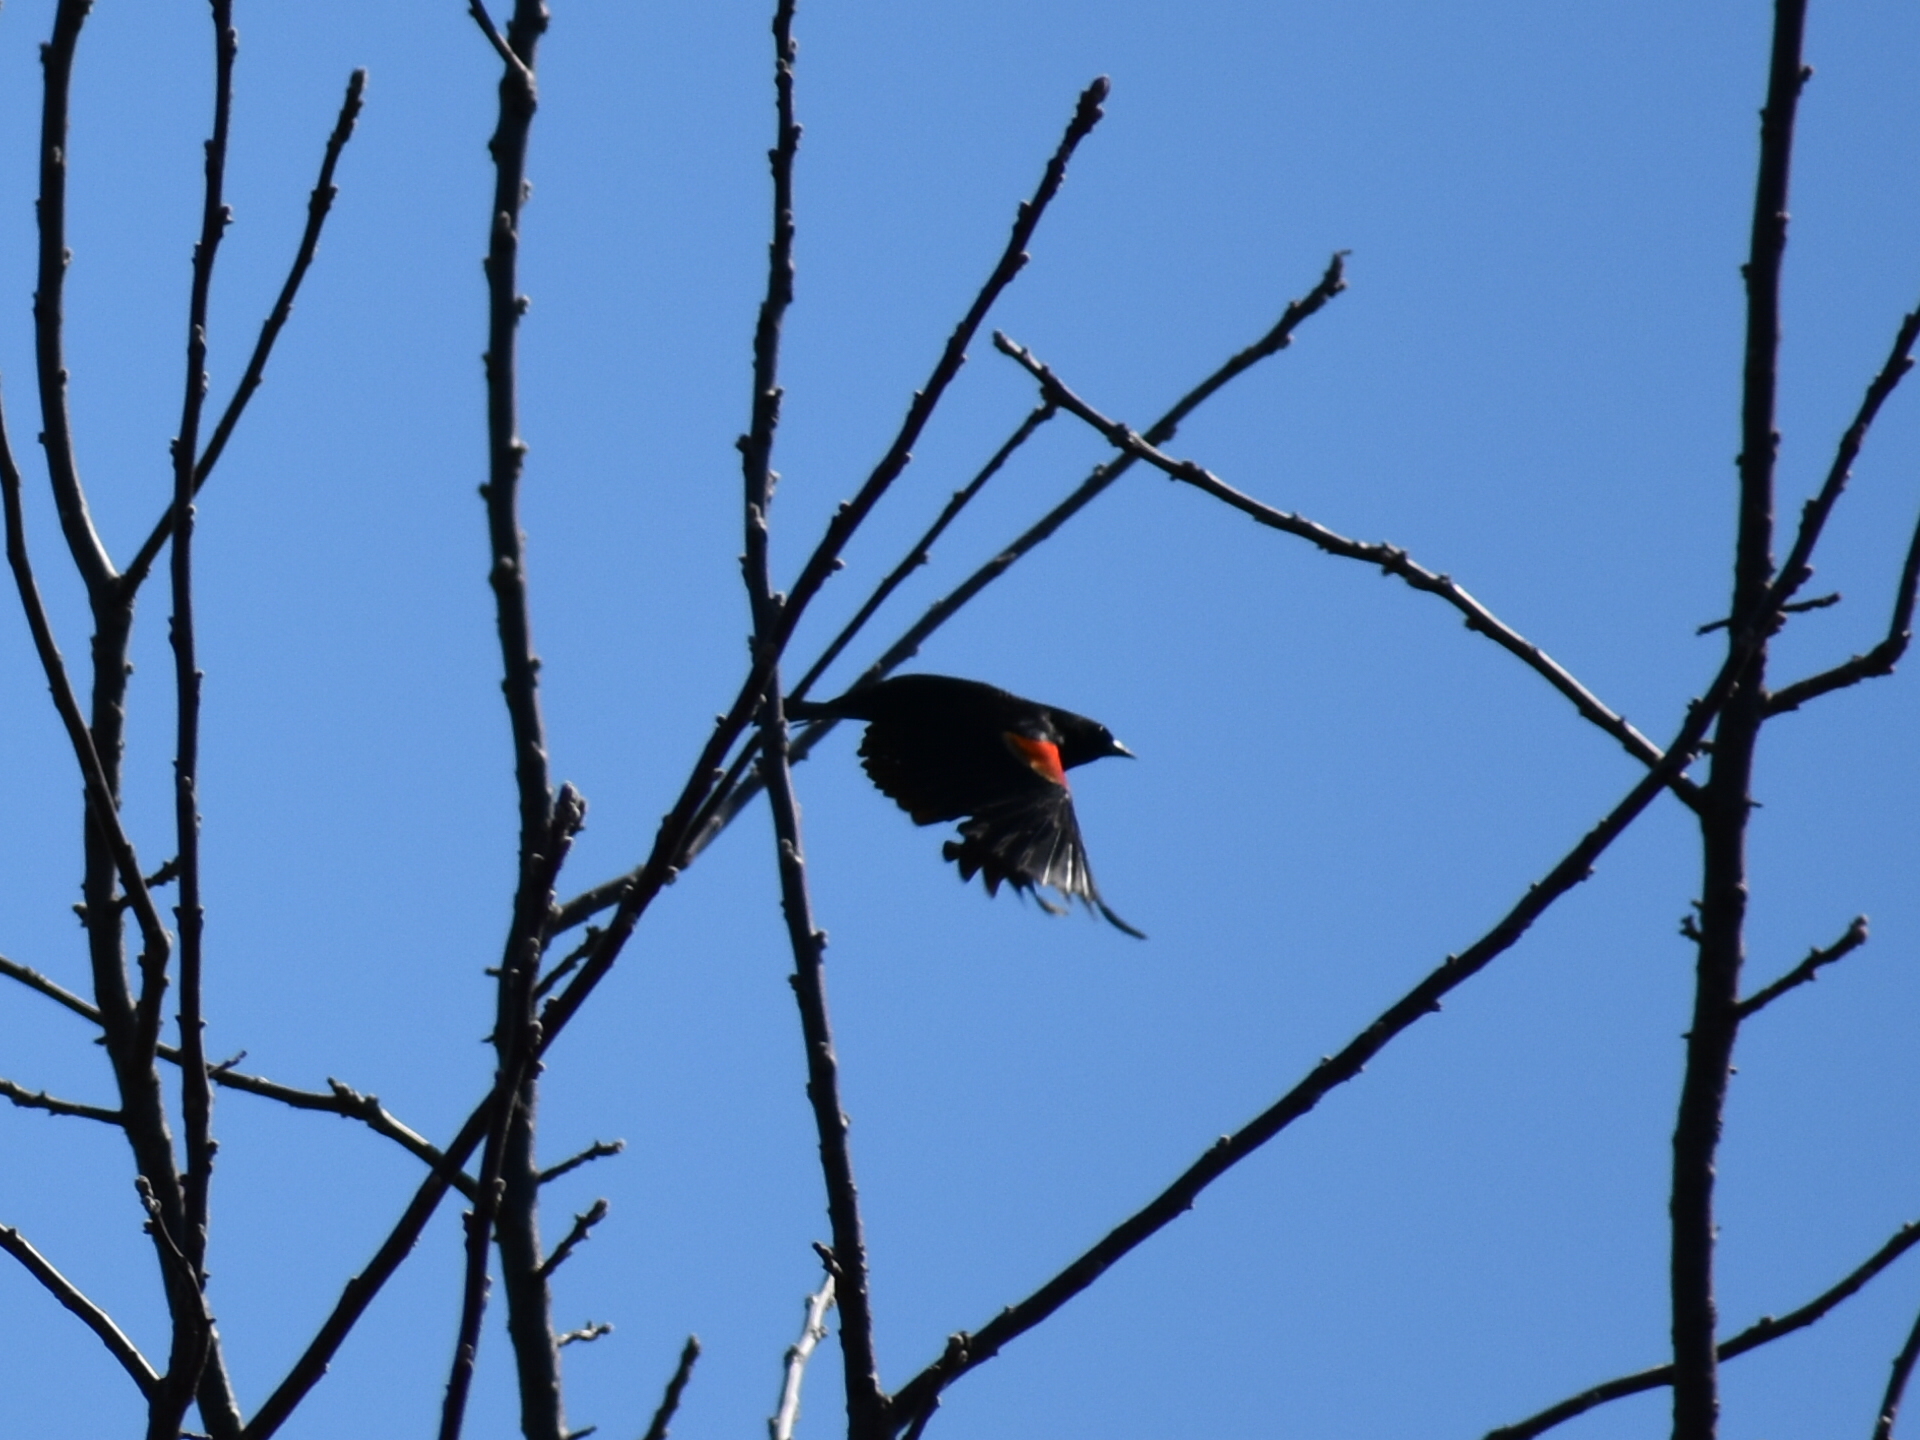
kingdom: Animalia
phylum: Chordata
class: Aves
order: Passeriformes
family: Icteridae
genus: Agelaius
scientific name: Agelaius phoeniceus
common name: Red-winged blackbird
